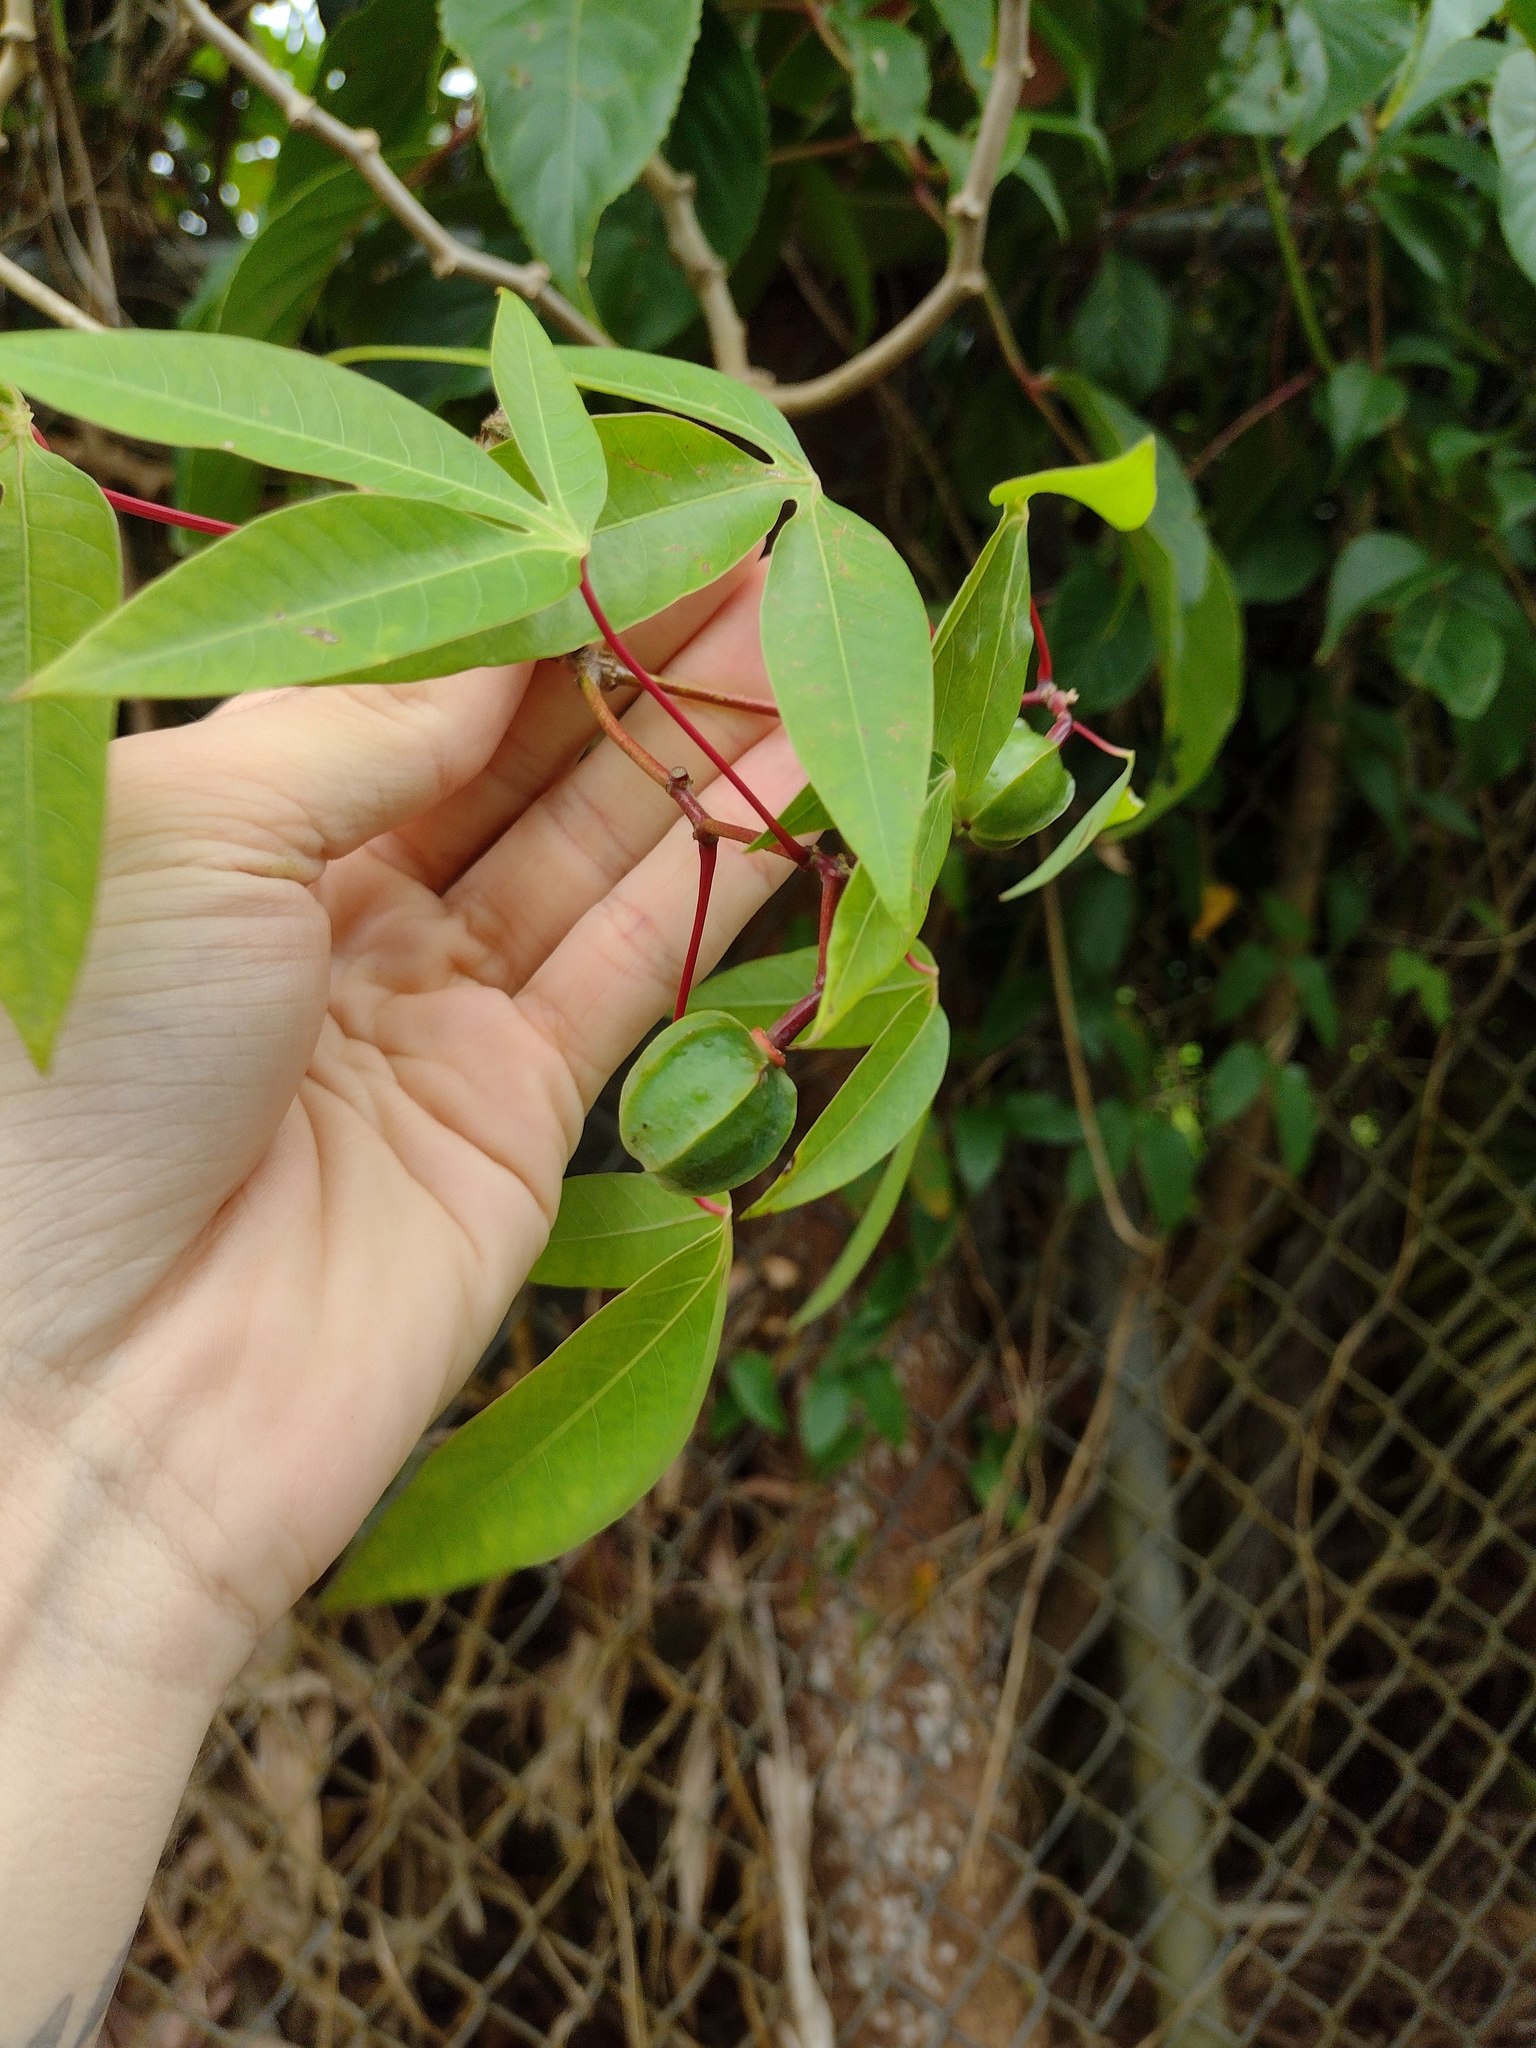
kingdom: Plantae
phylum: Tracheophyta
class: Magnoliopsida
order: Malpighiales
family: Euphorbiaceae
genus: Manihot
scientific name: Manihot esculenta
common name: Cassava
